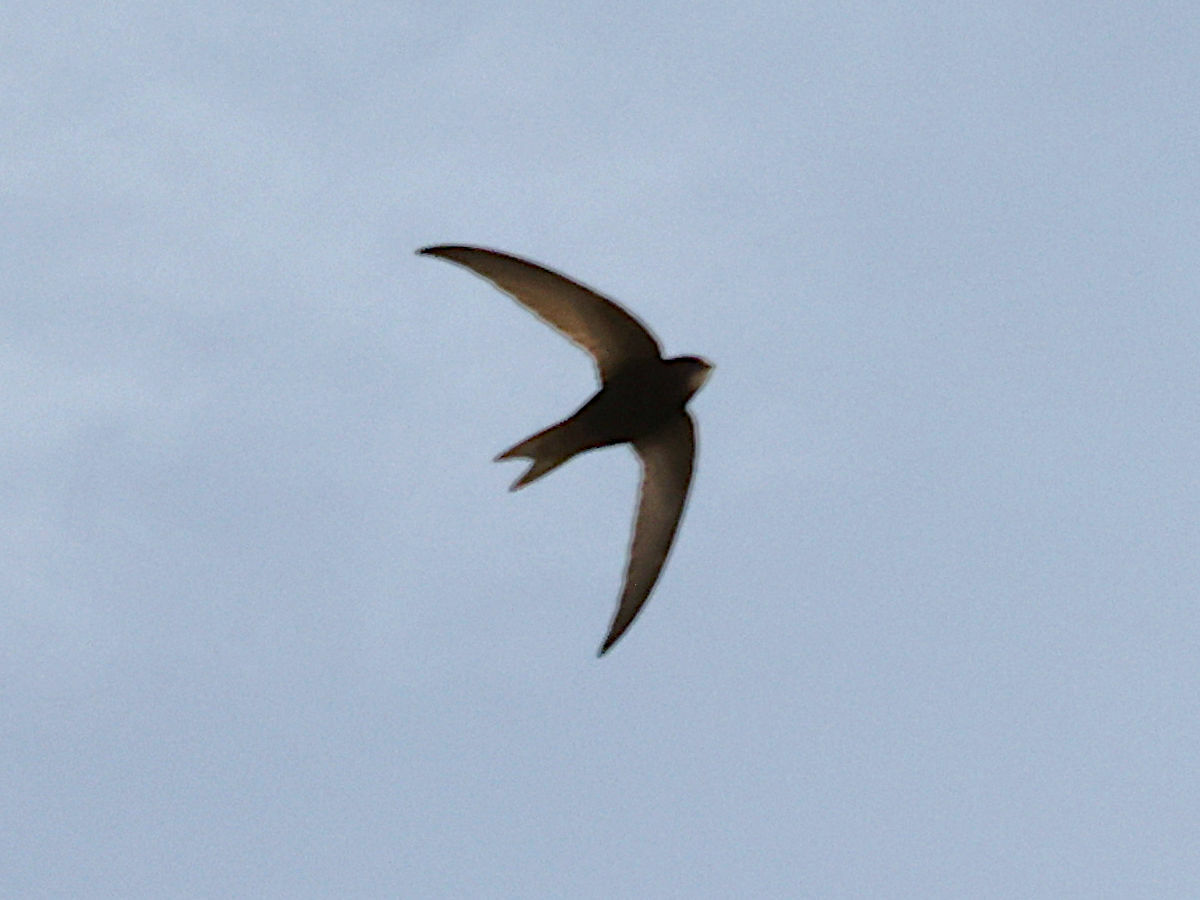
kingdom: Animalia
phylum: Chordata
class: Aves
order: Apodiformes
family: Apodidae
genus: Apus
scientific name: Apus apus
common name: Common swift
